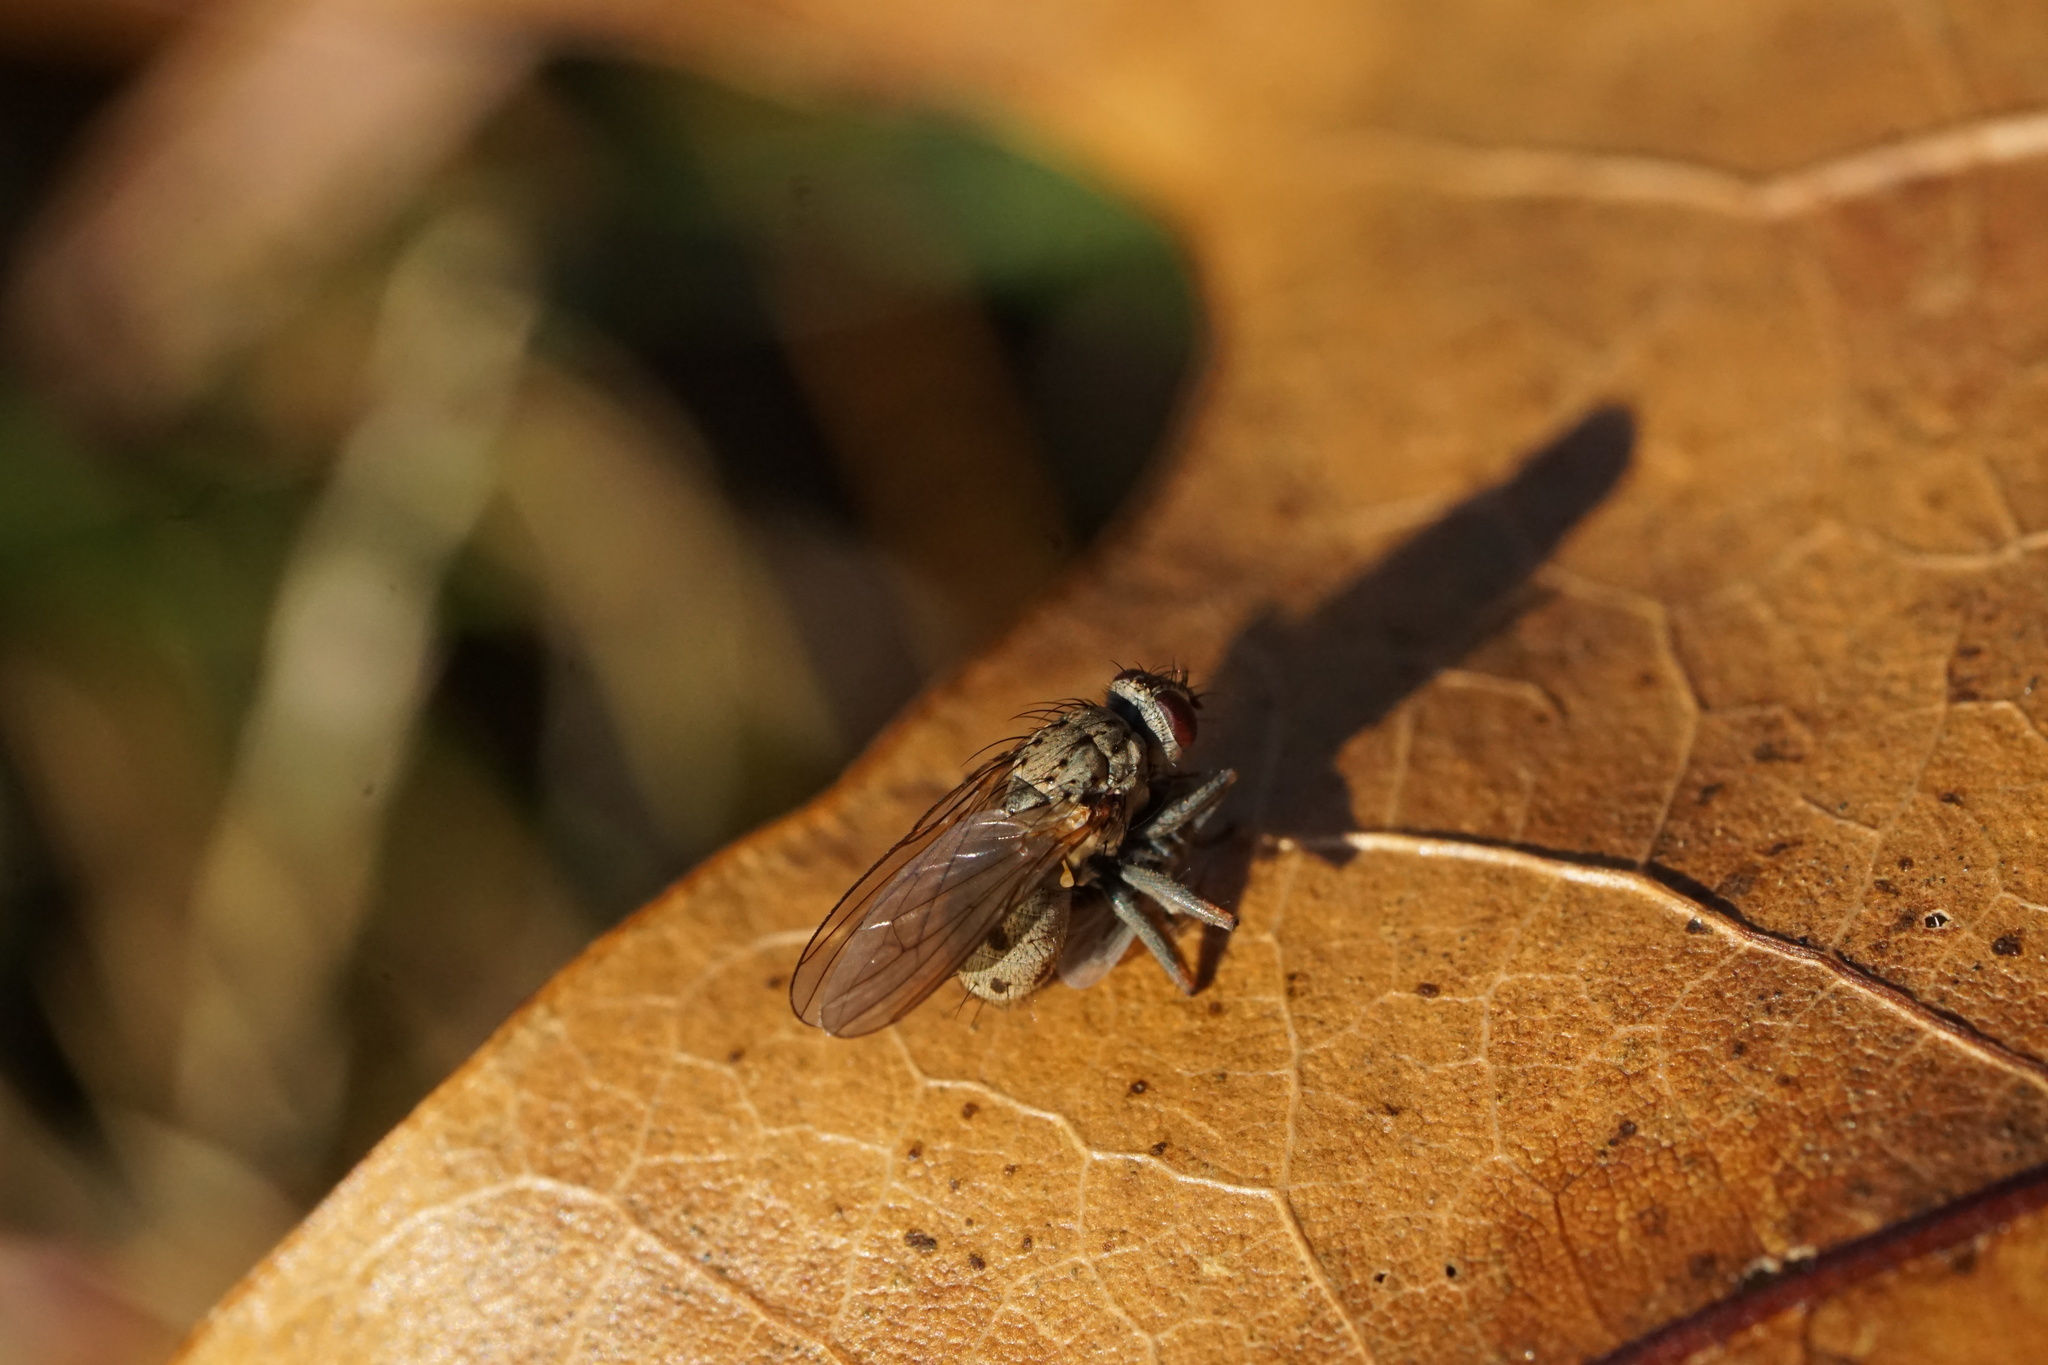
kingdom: Animalia
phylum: Arthropoda
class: Insecta
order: Diptera
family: Muscidae
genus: Coenosia
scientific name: Coenosia tigrina
